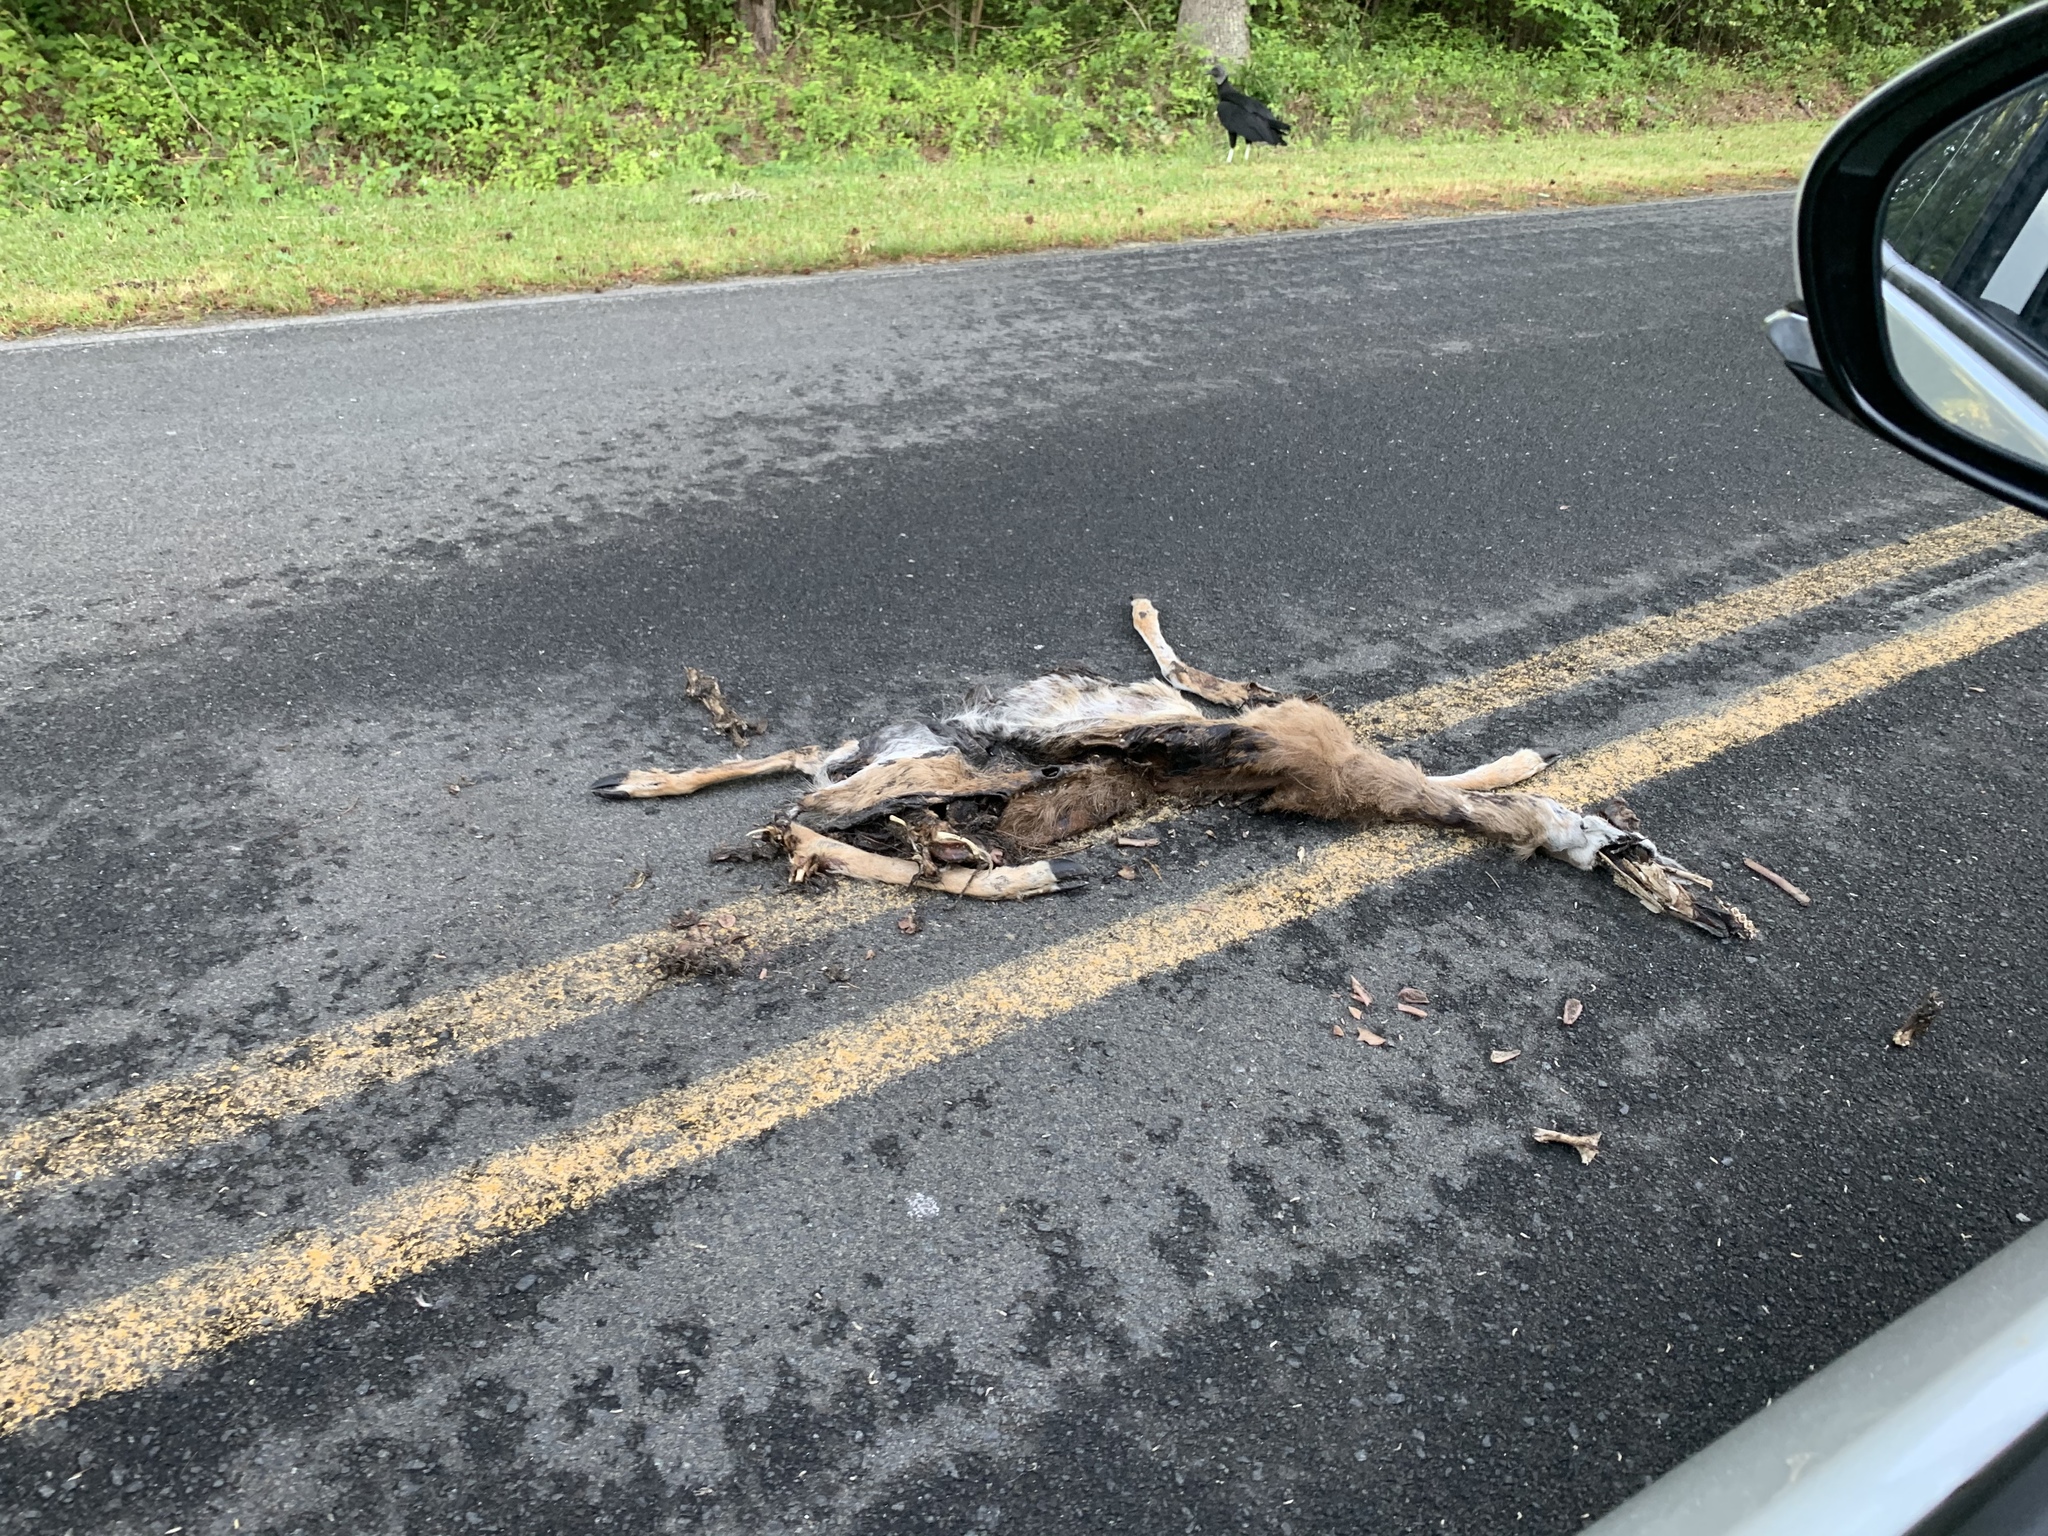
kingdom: Animalia
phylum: Chordata
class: Mammalia
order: Artiodactyla
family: Cervidae
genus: Odocoileus
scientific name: Odocoileus virginianus
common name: White-tailed deer
